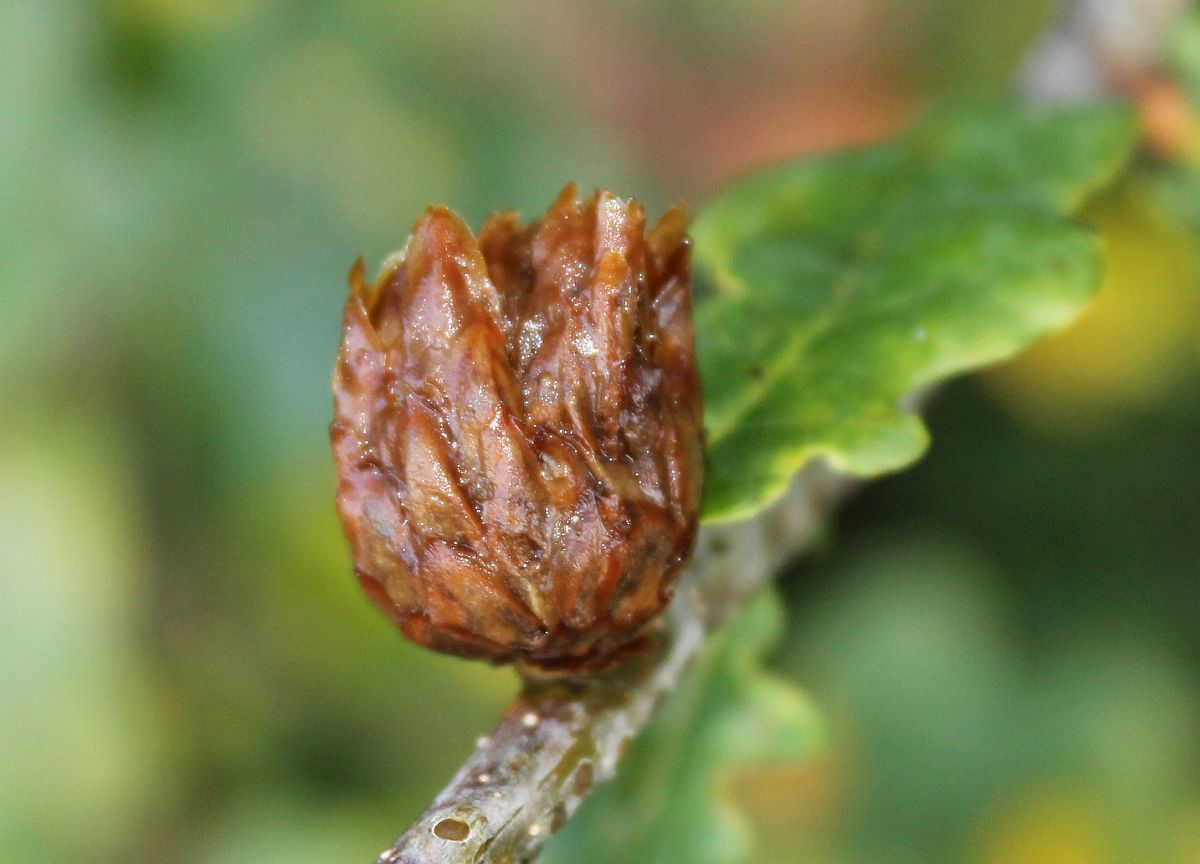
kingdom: Animalia
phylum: Arthropoda
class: Insecta
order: Hymenoptera
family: Cynipidae
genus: Andricus
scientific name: Andricus foecundatrix
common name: Artichoke gall
